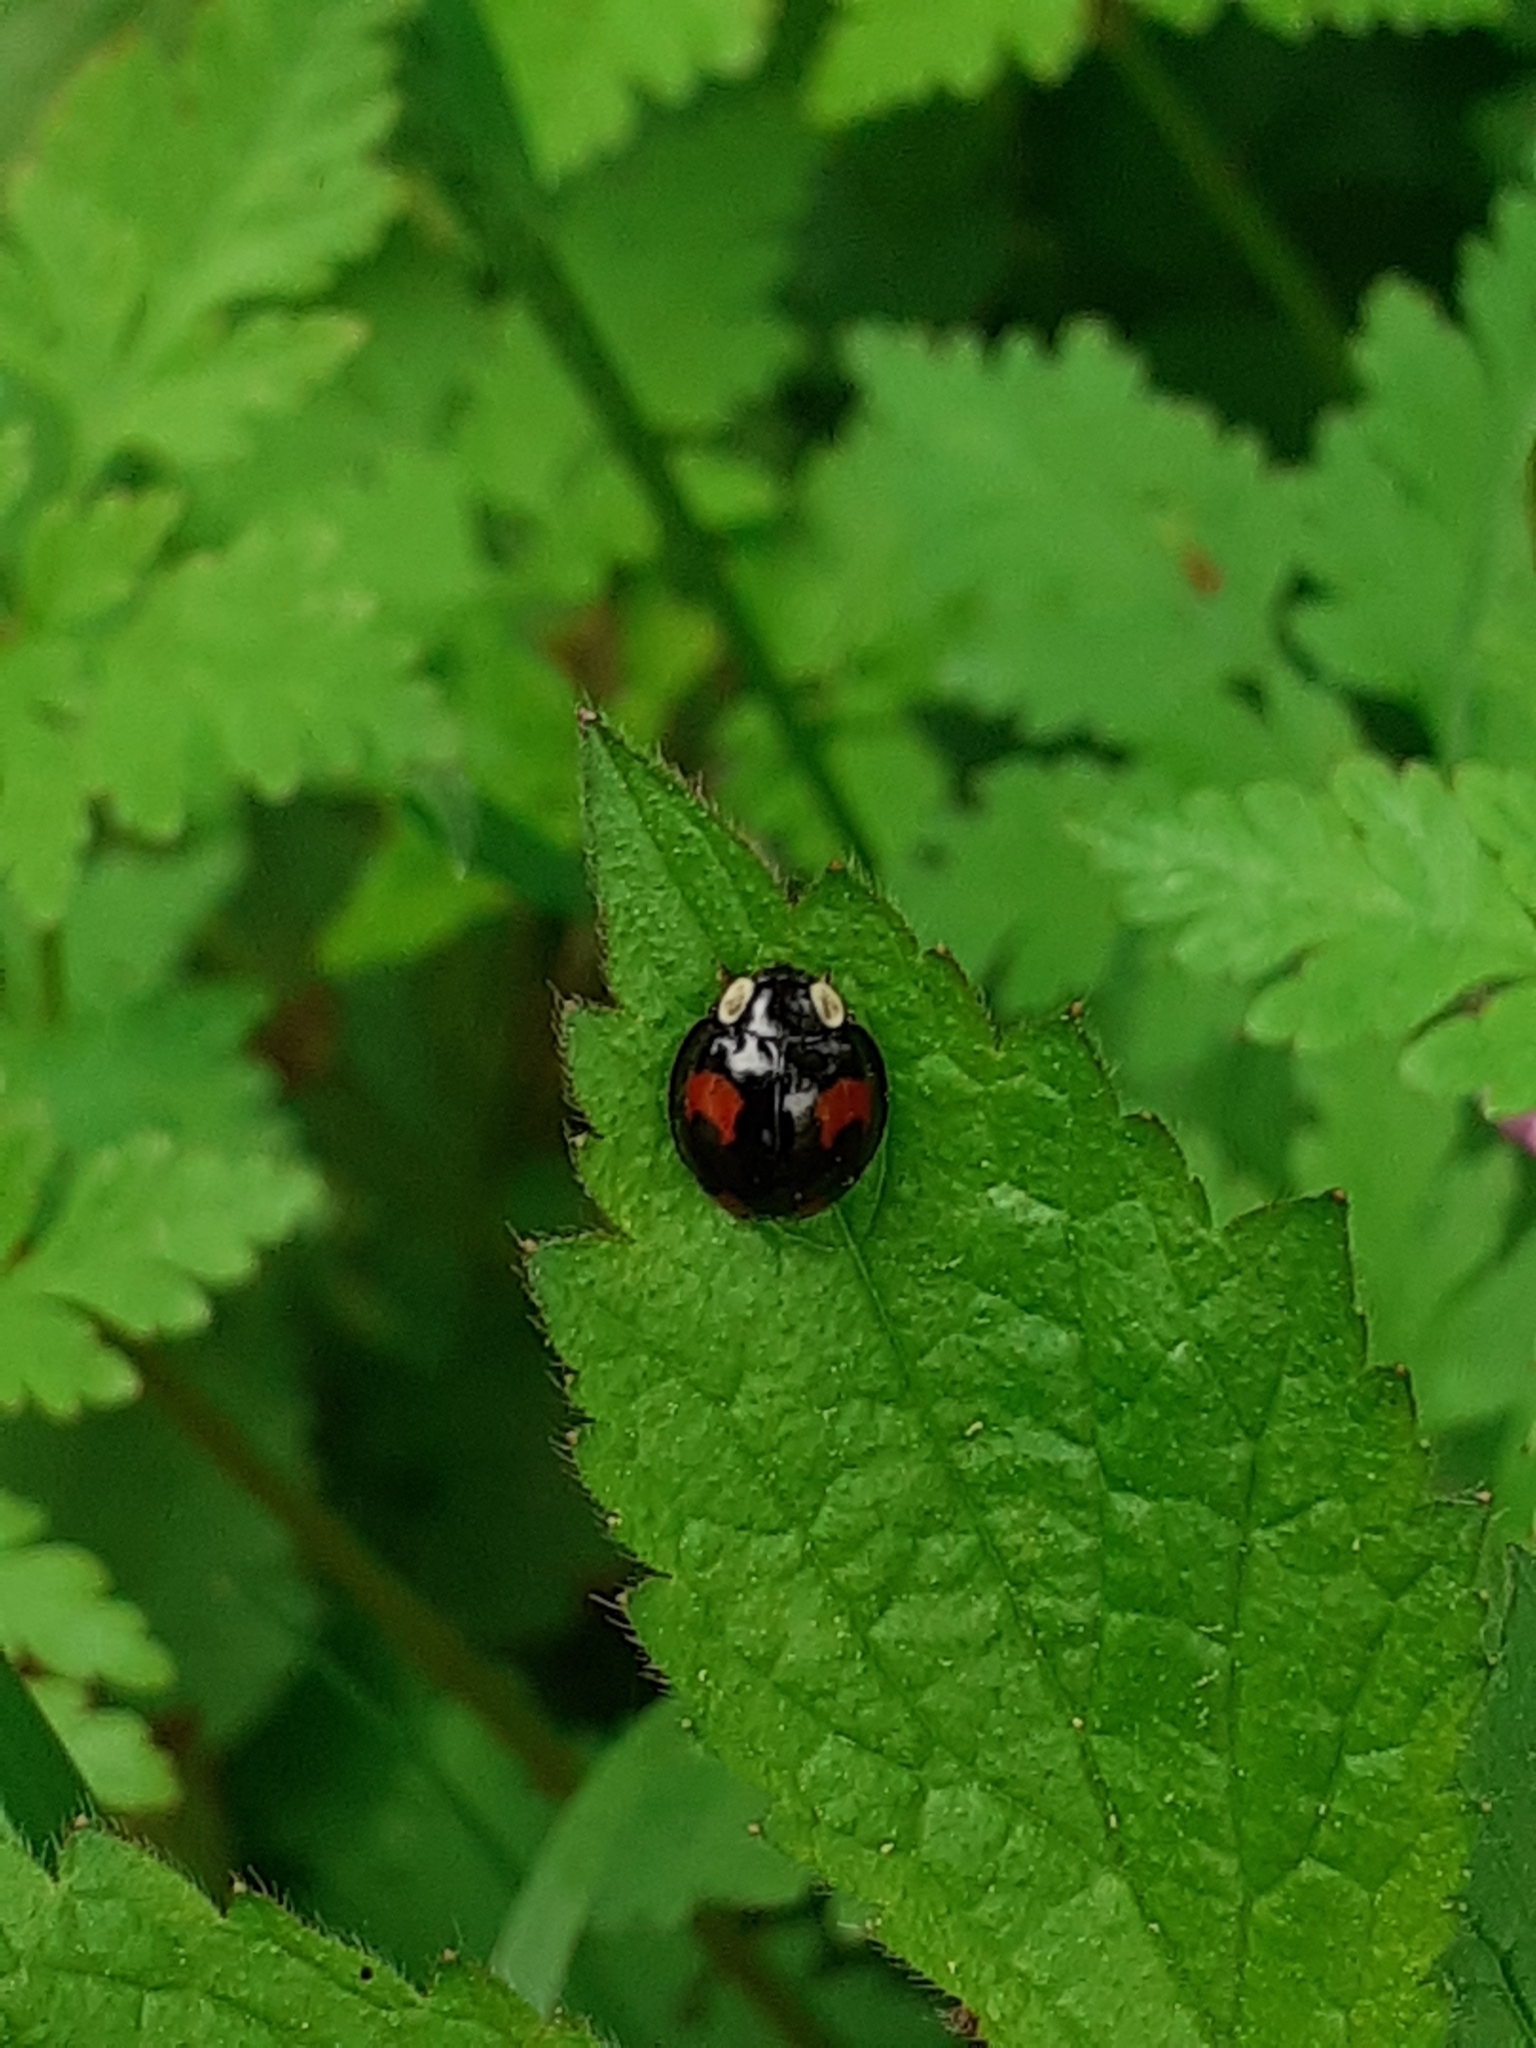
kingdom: Animalia
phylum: Arthropoda
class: Insecta
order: Coleoptera
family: Coccinellidae
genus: Harmonia
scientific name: Harmonia axyridis
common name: Harlequin ladybird
